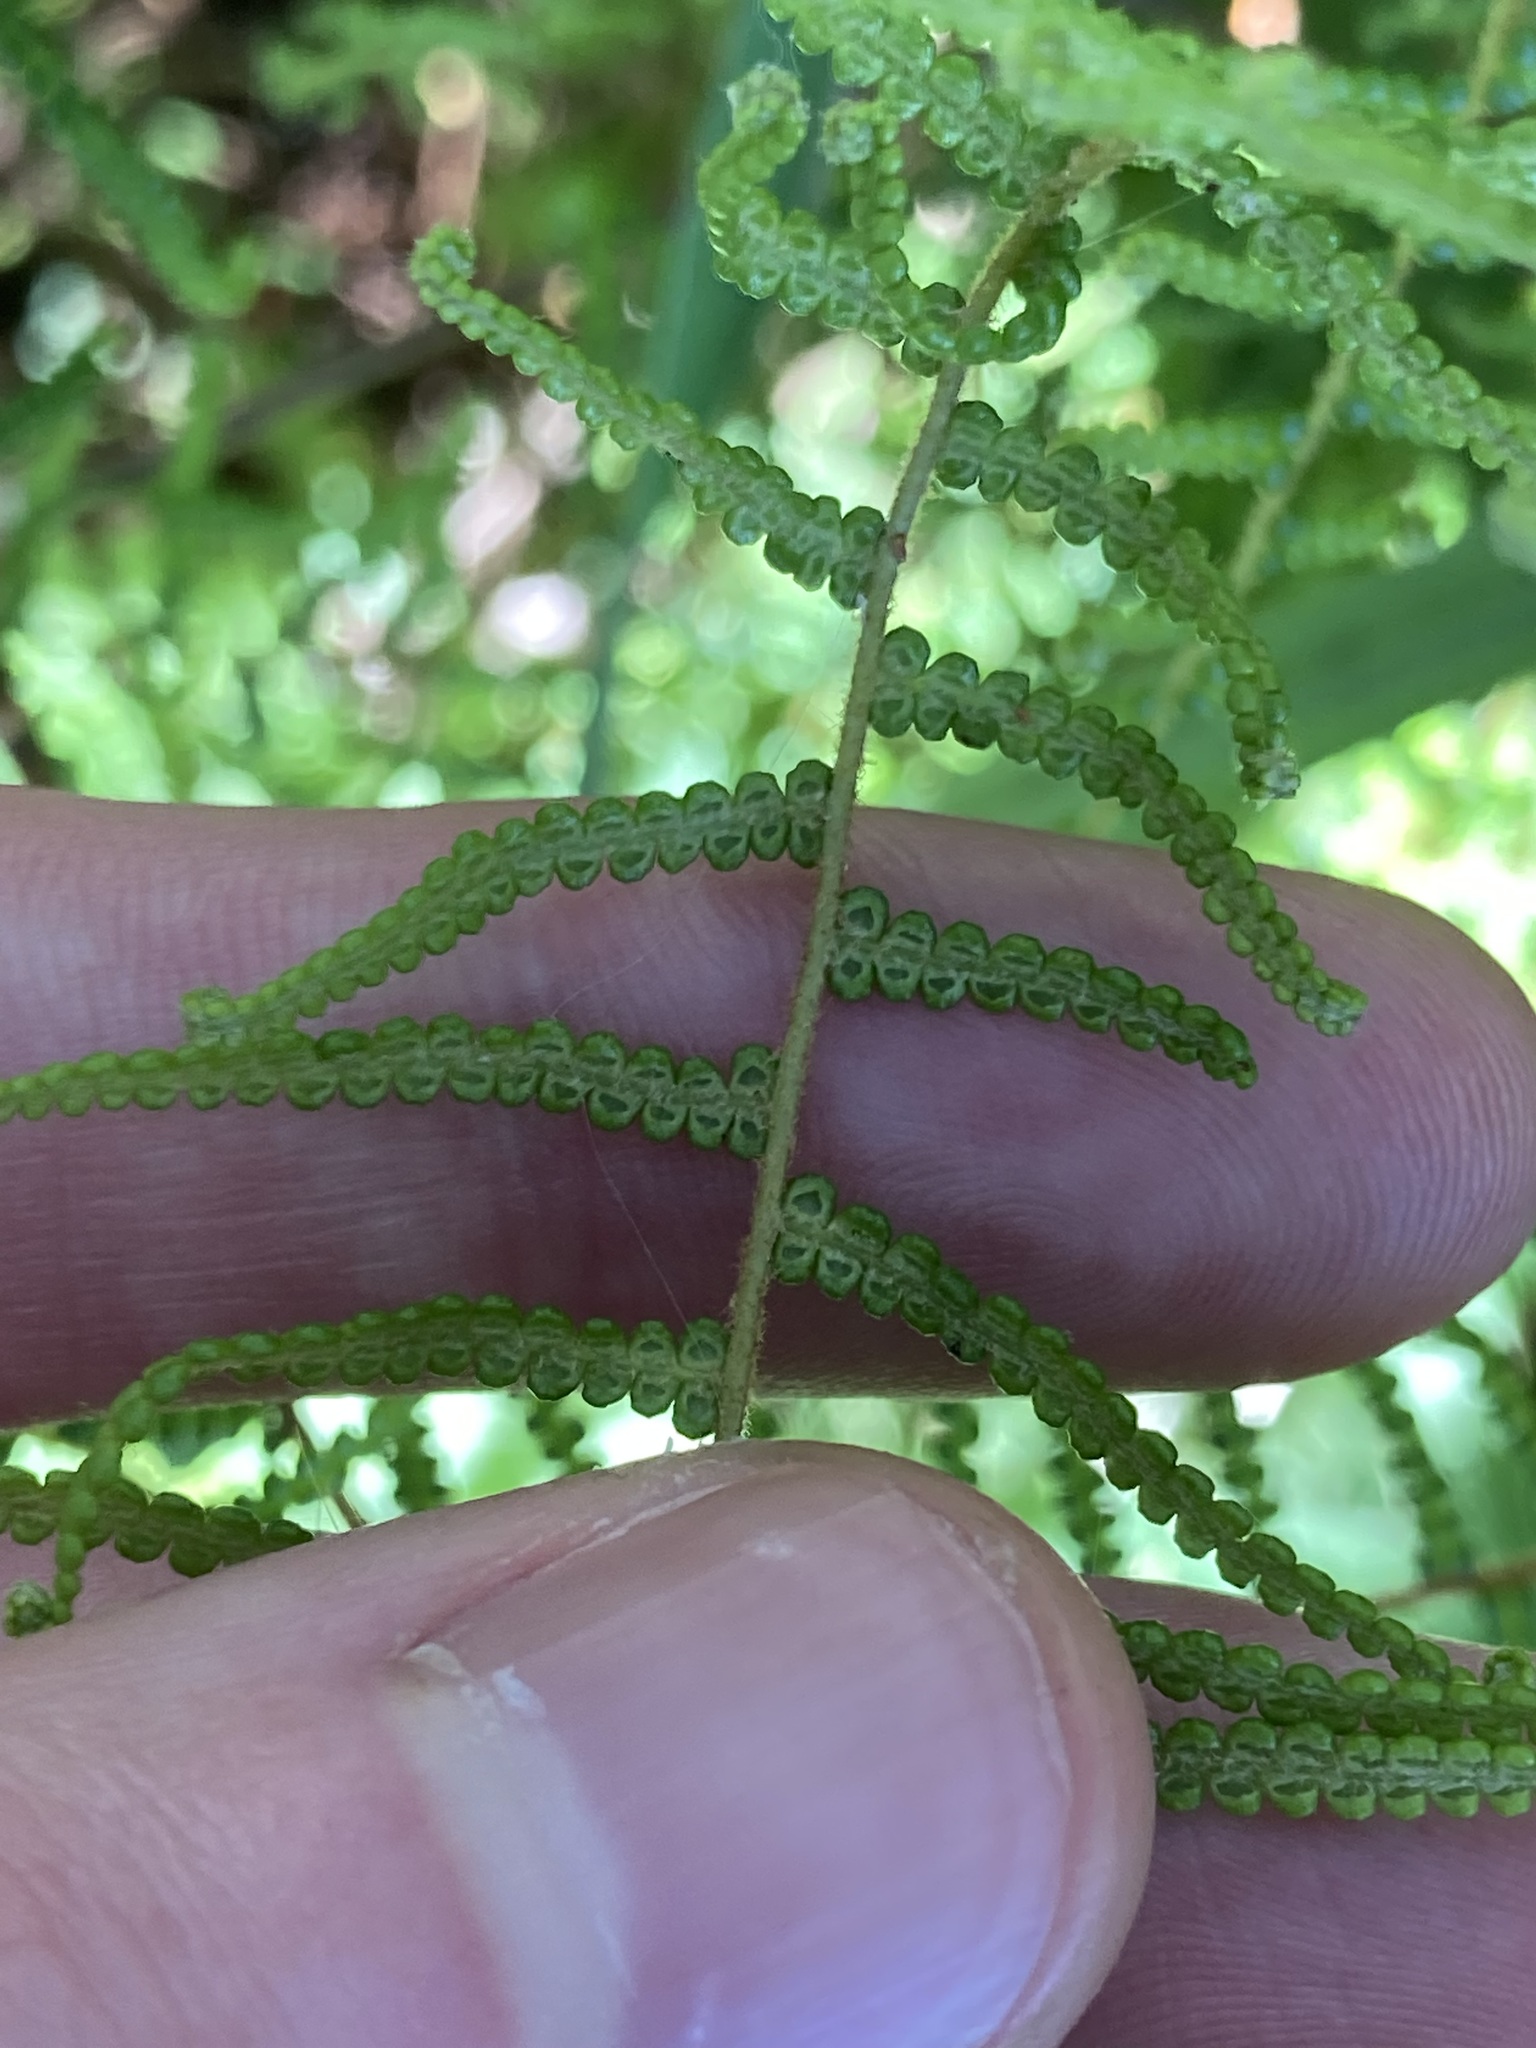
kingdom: Plantae
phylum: Tracheophyta
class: Polypodiopsida
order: Gleicheniales
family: Gleicheniaceae
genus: Gleichenia
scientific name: Gleichenia dicarpa
